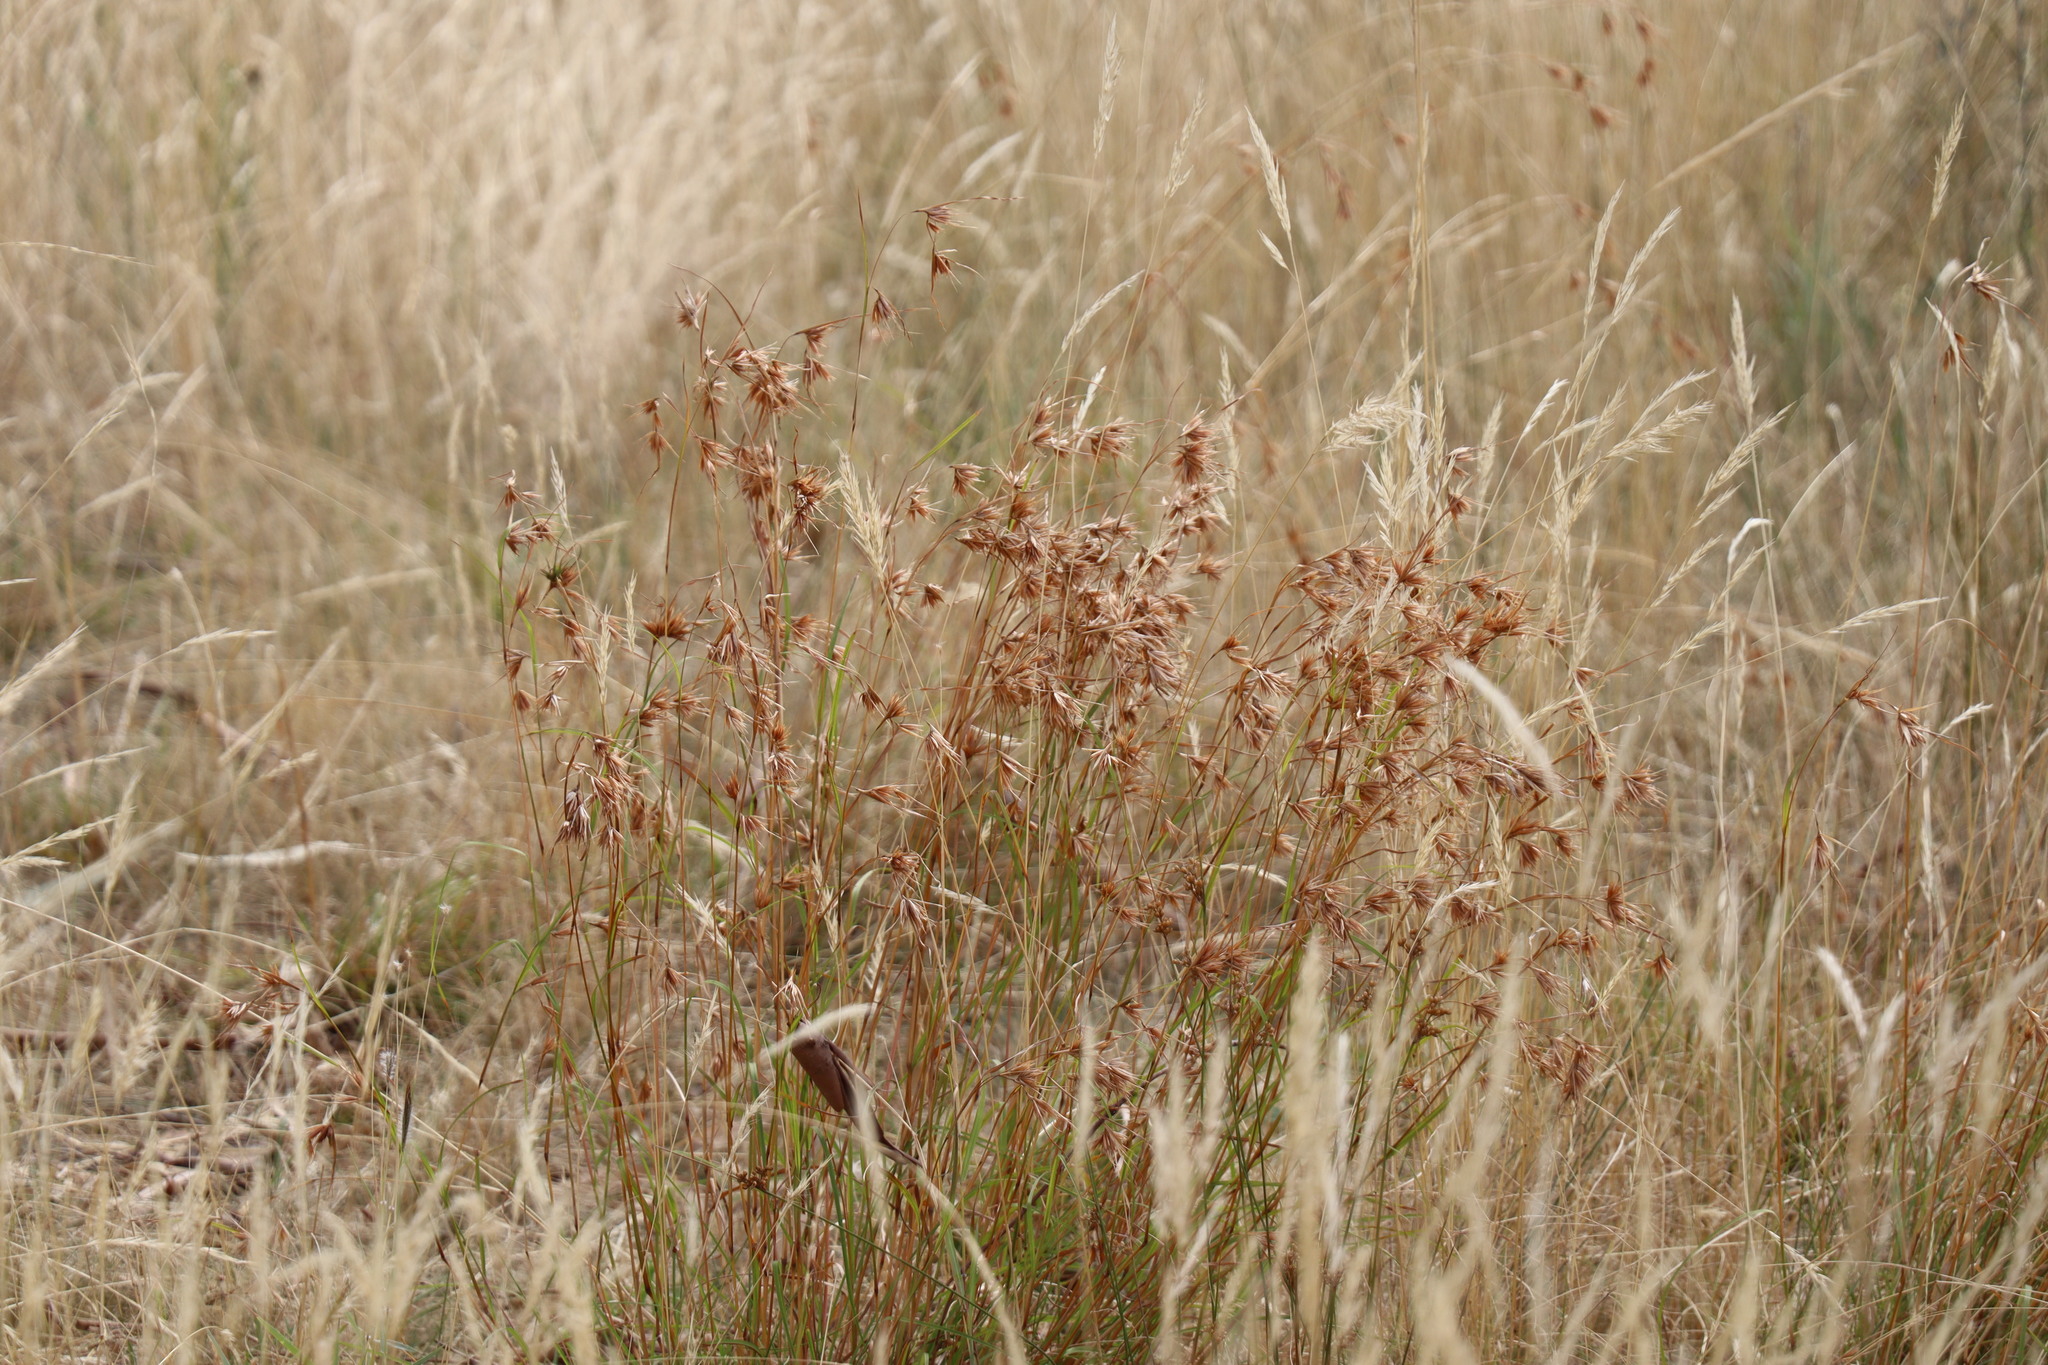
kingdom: Plantae
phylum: Tracheophyta
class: Liliopsida
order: Poales
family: Poaceae
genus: Themeda
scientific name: Themeda triandra
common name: Kangaroo grass
